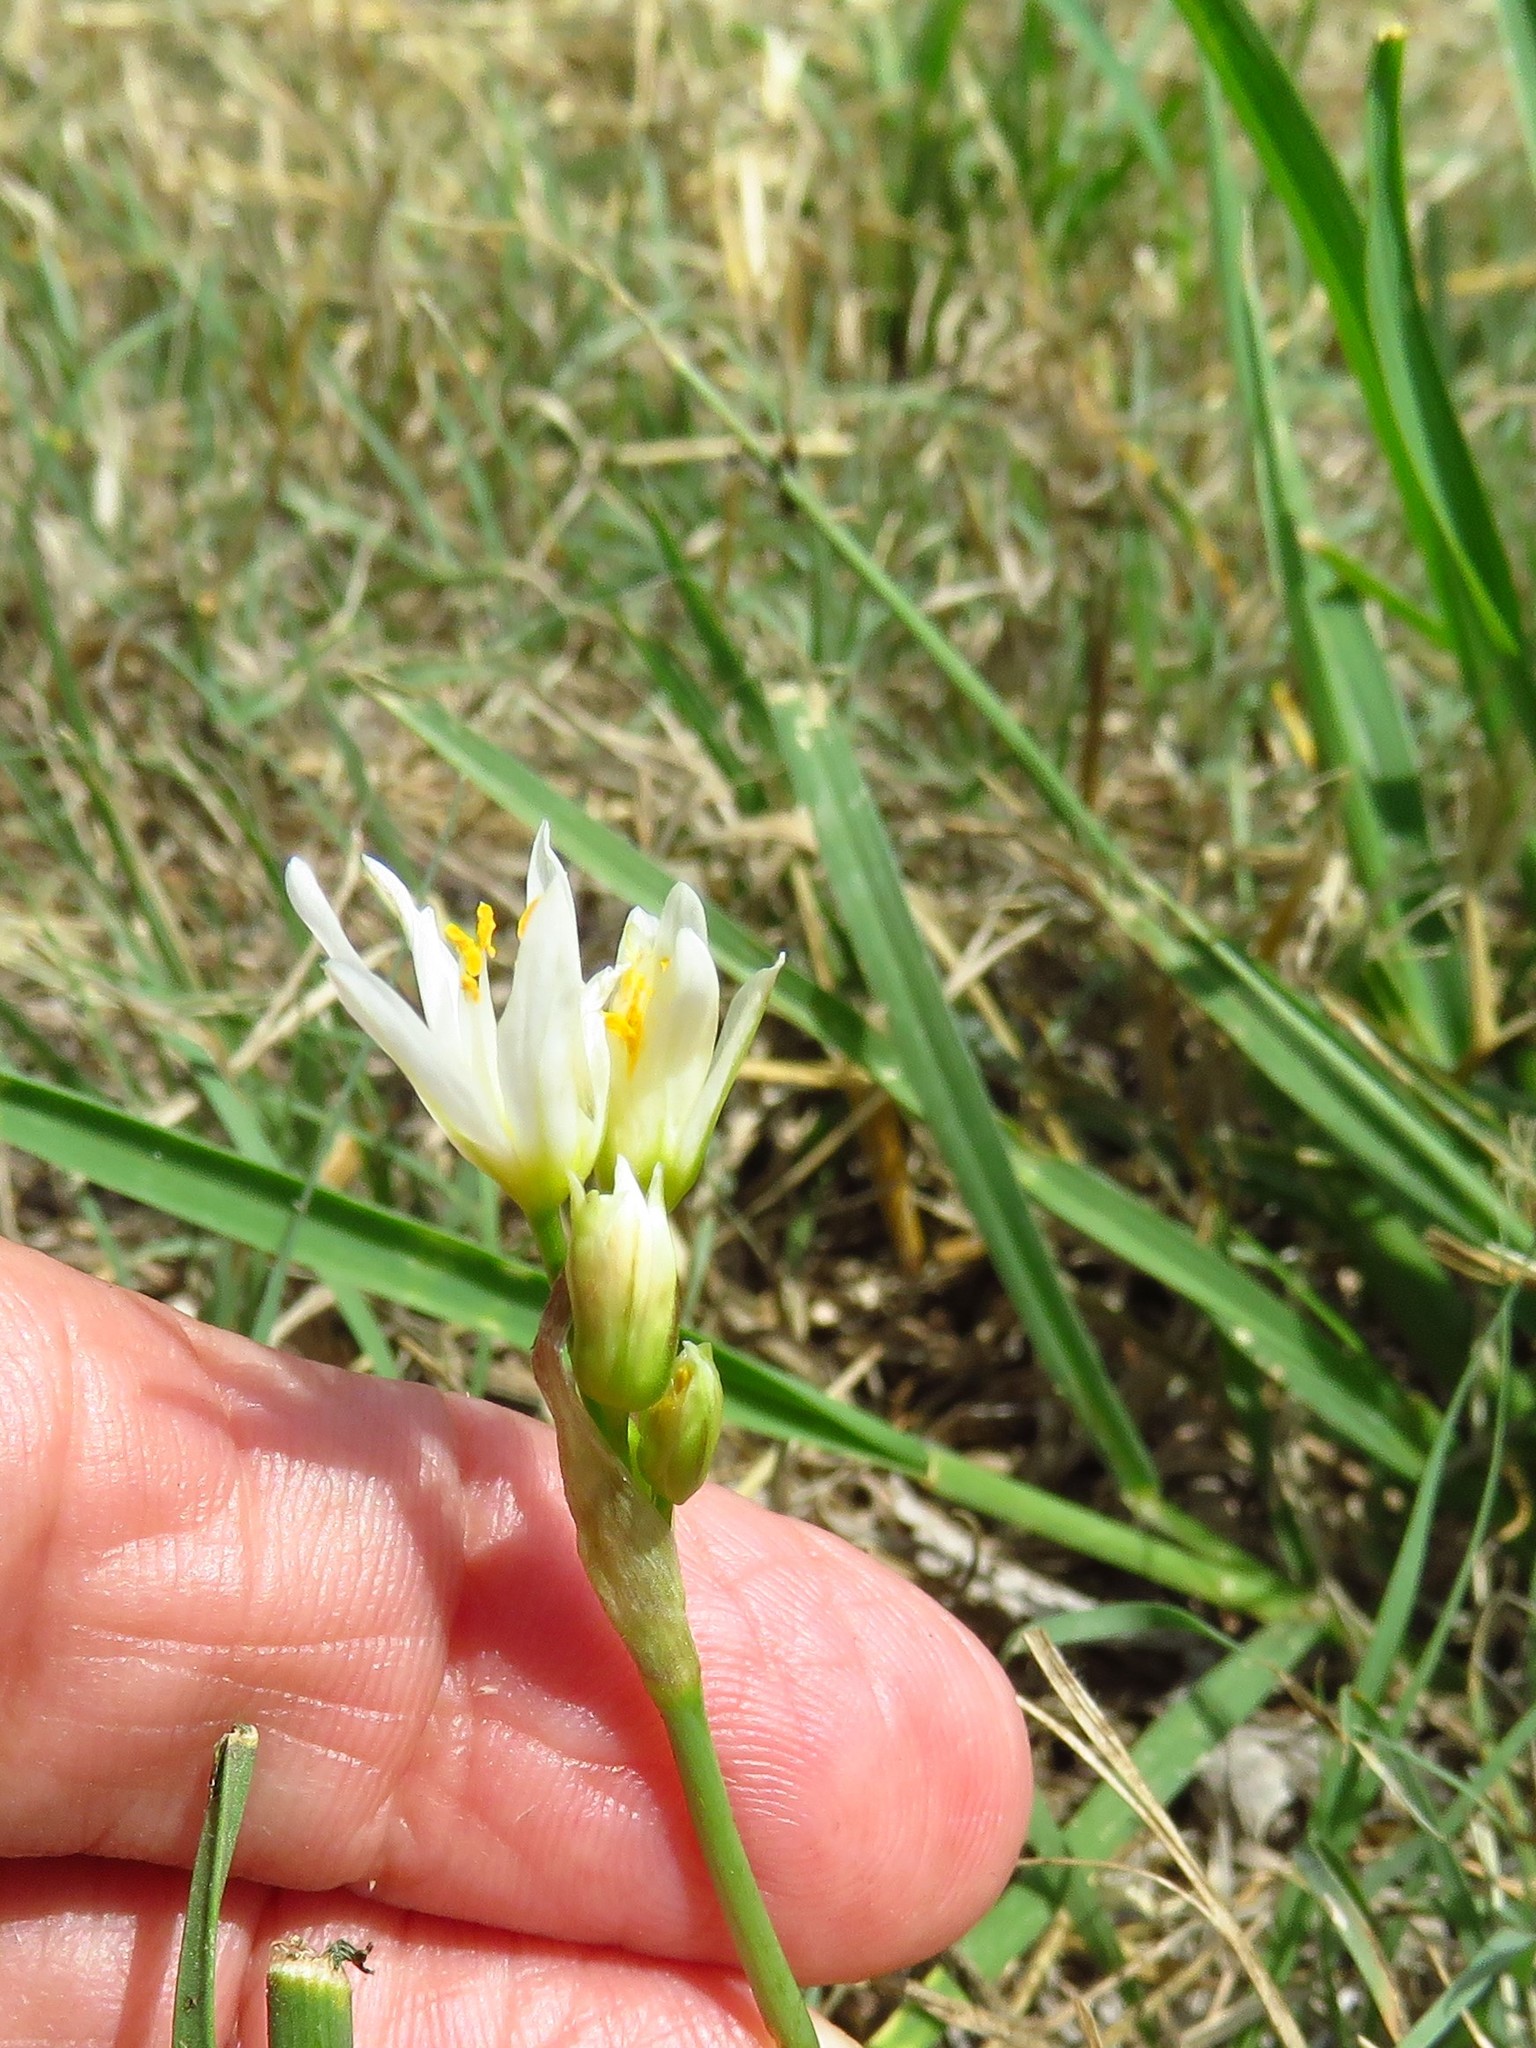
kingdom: Plantae
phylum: Tracheophyta
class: Liliopsida
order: Asparagales
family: Amaryllidaceae
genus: Nothoscordum
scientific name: Nothoscordum bivalve
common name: Crow-poison
